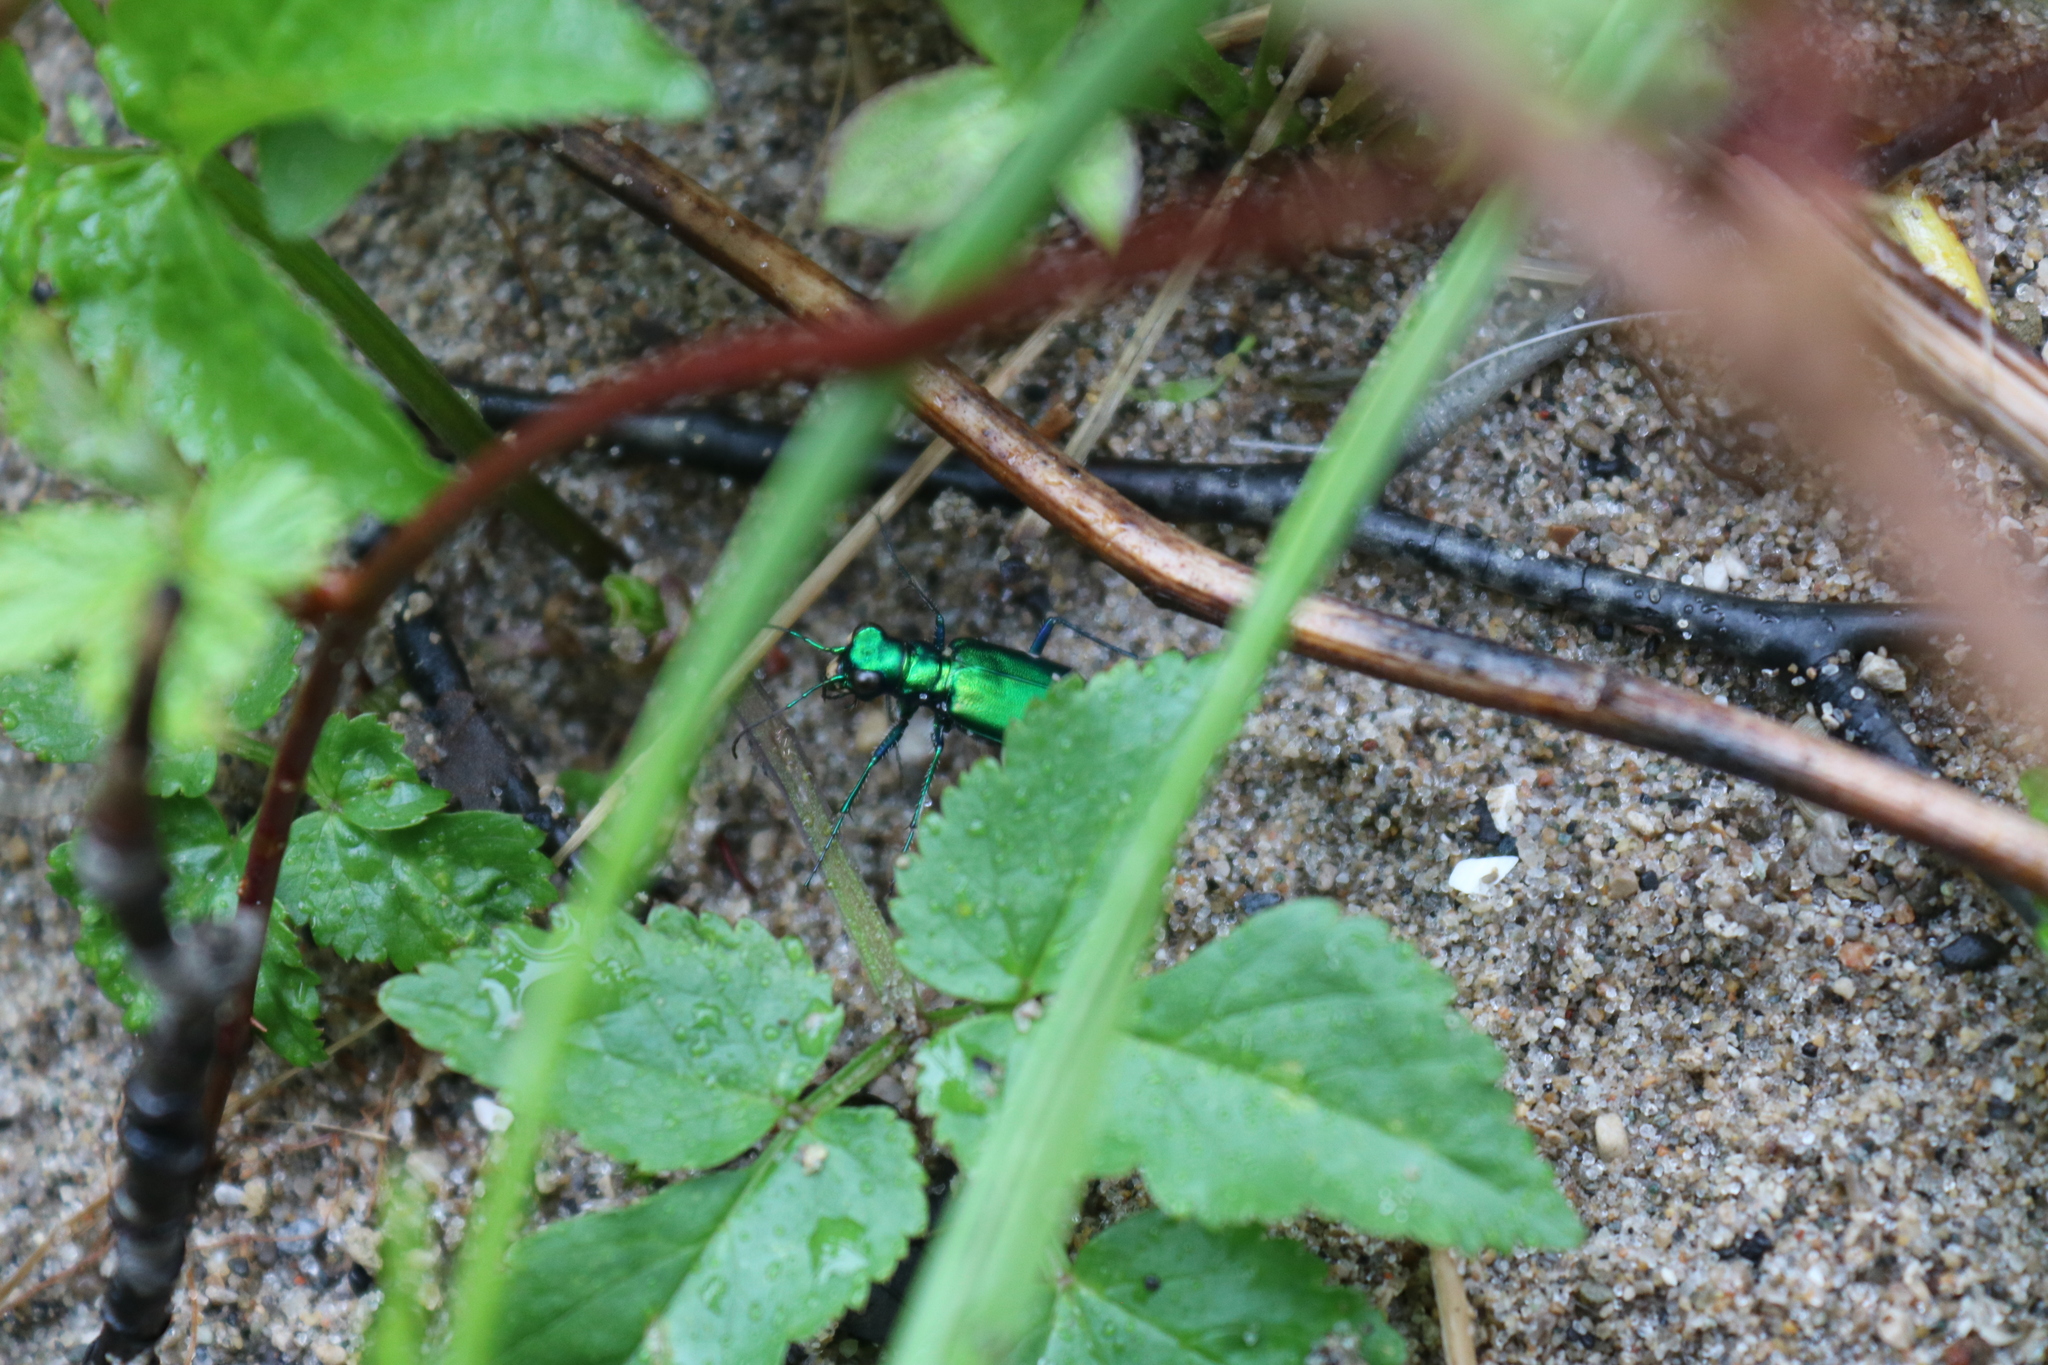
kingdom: Animalia
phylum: Arthropoda
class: Insecta
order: Coleoptera
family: Carabidae
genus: Cicindela
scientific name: Cicindela sexguttata
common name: Six-spotted tiger beetle
